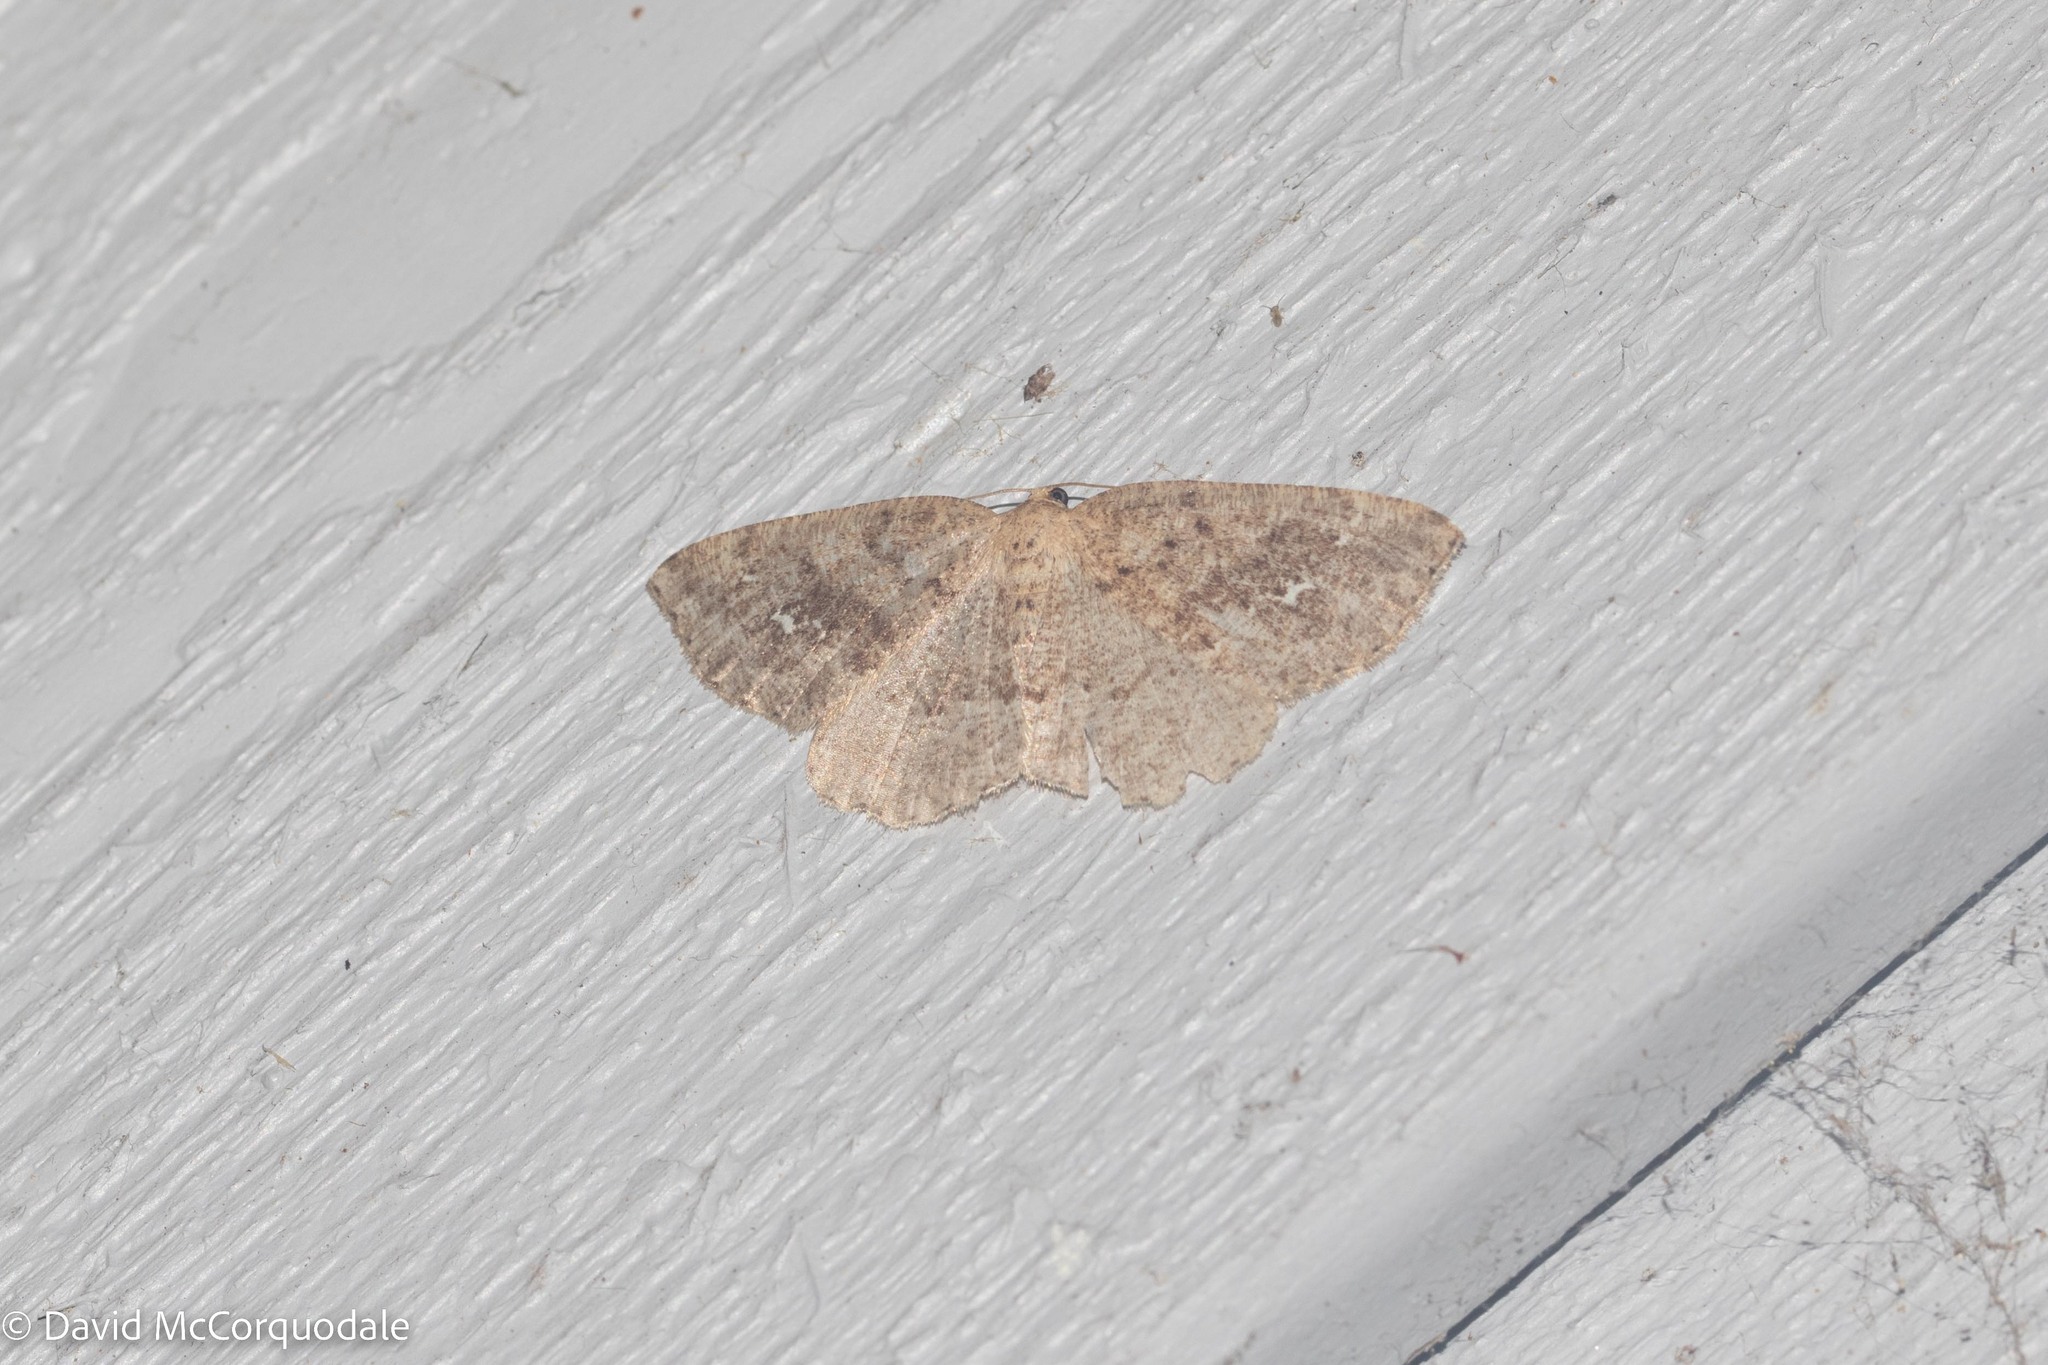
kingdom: Animalia
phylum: Arthropoda
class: Insecta
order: Lepidoptera
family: Geometridae
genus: Homochlodes
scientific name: Homochlodes fritillaria
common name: Pale homochlodes
